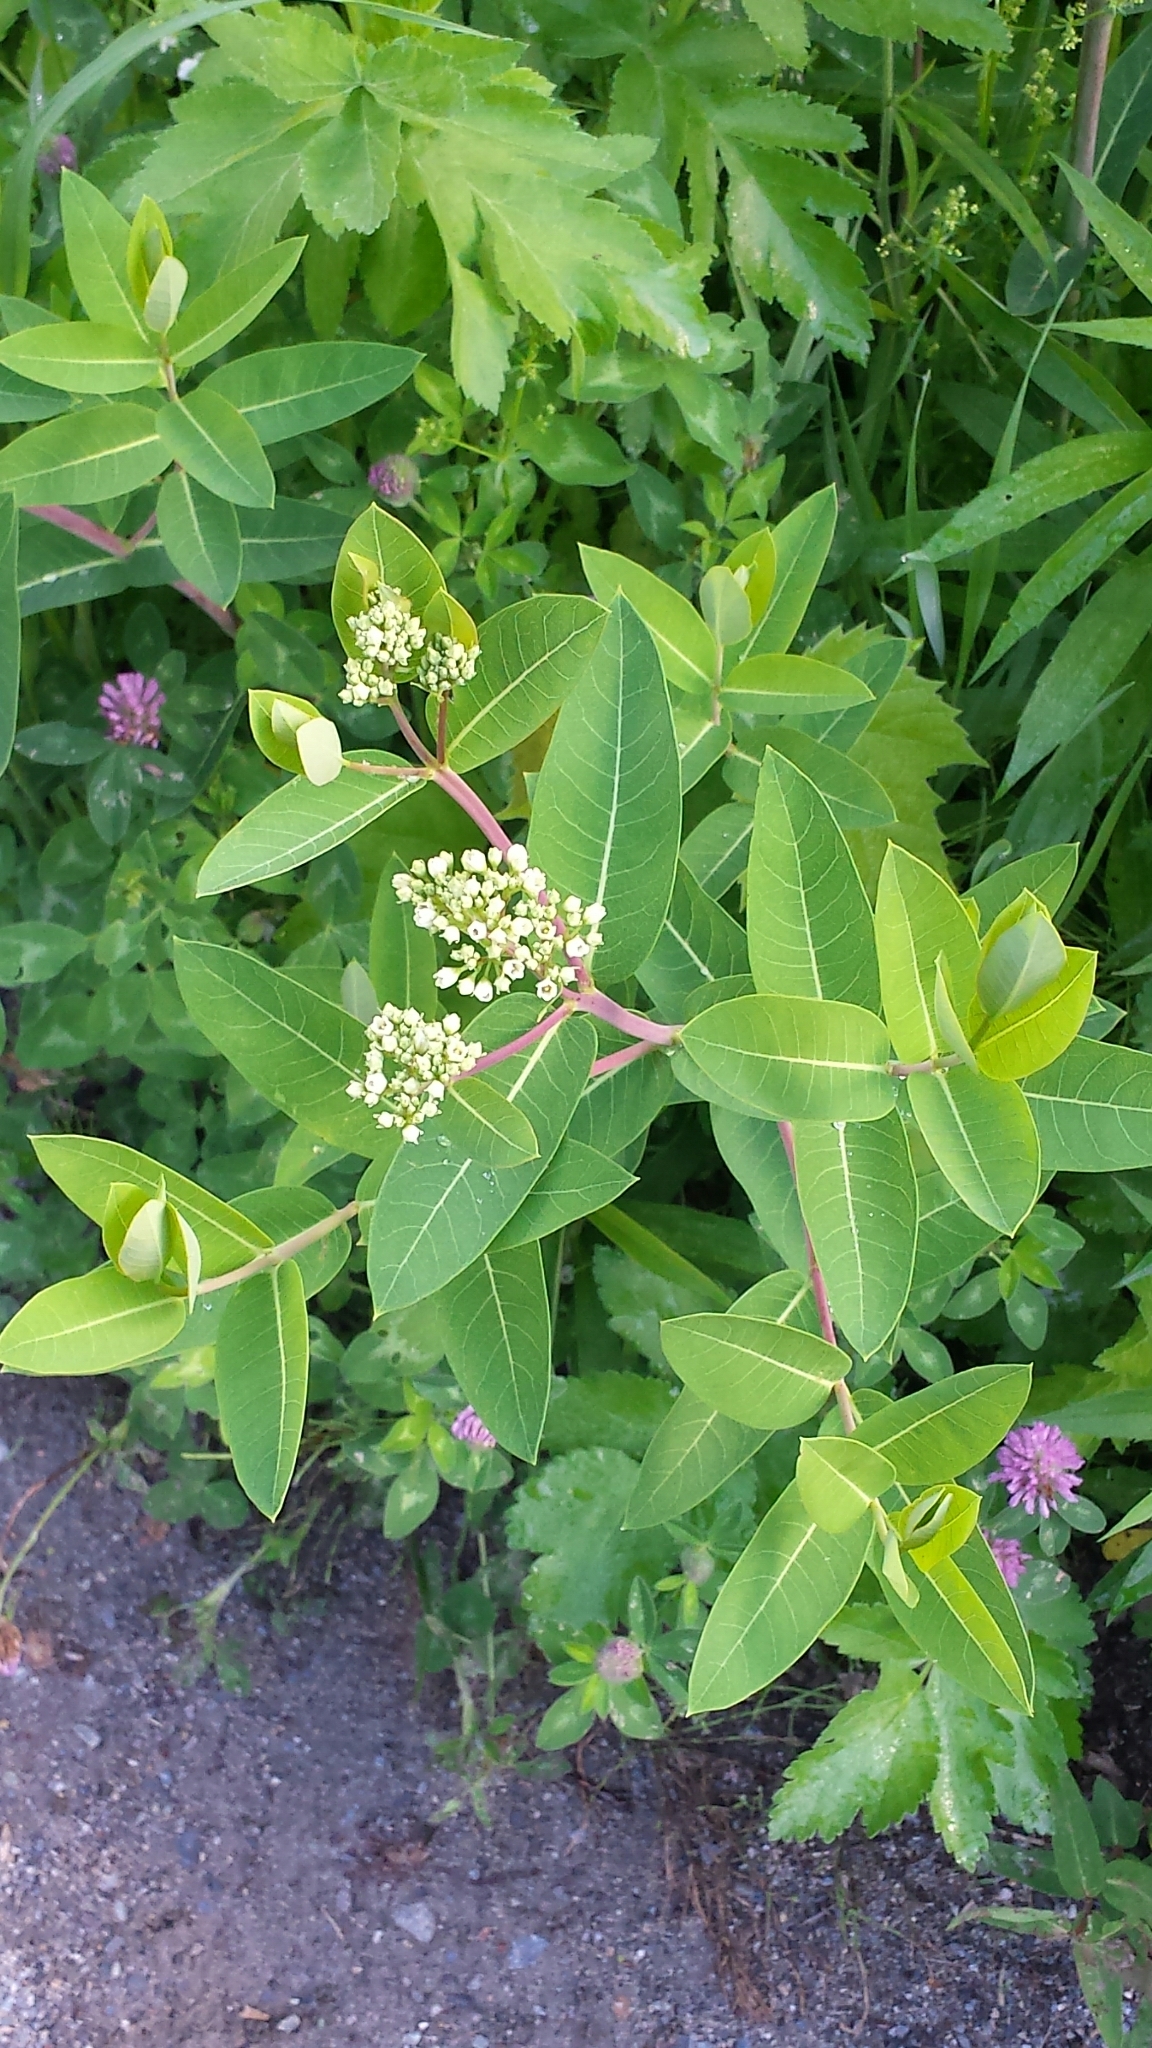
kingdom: Plantae
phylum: Tracheophyta
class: Magnoliopsida
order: Gentianales
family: Apocynaceae
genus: Apocynum
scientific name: Apocynum cannabinum
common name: Hemp dogbane
